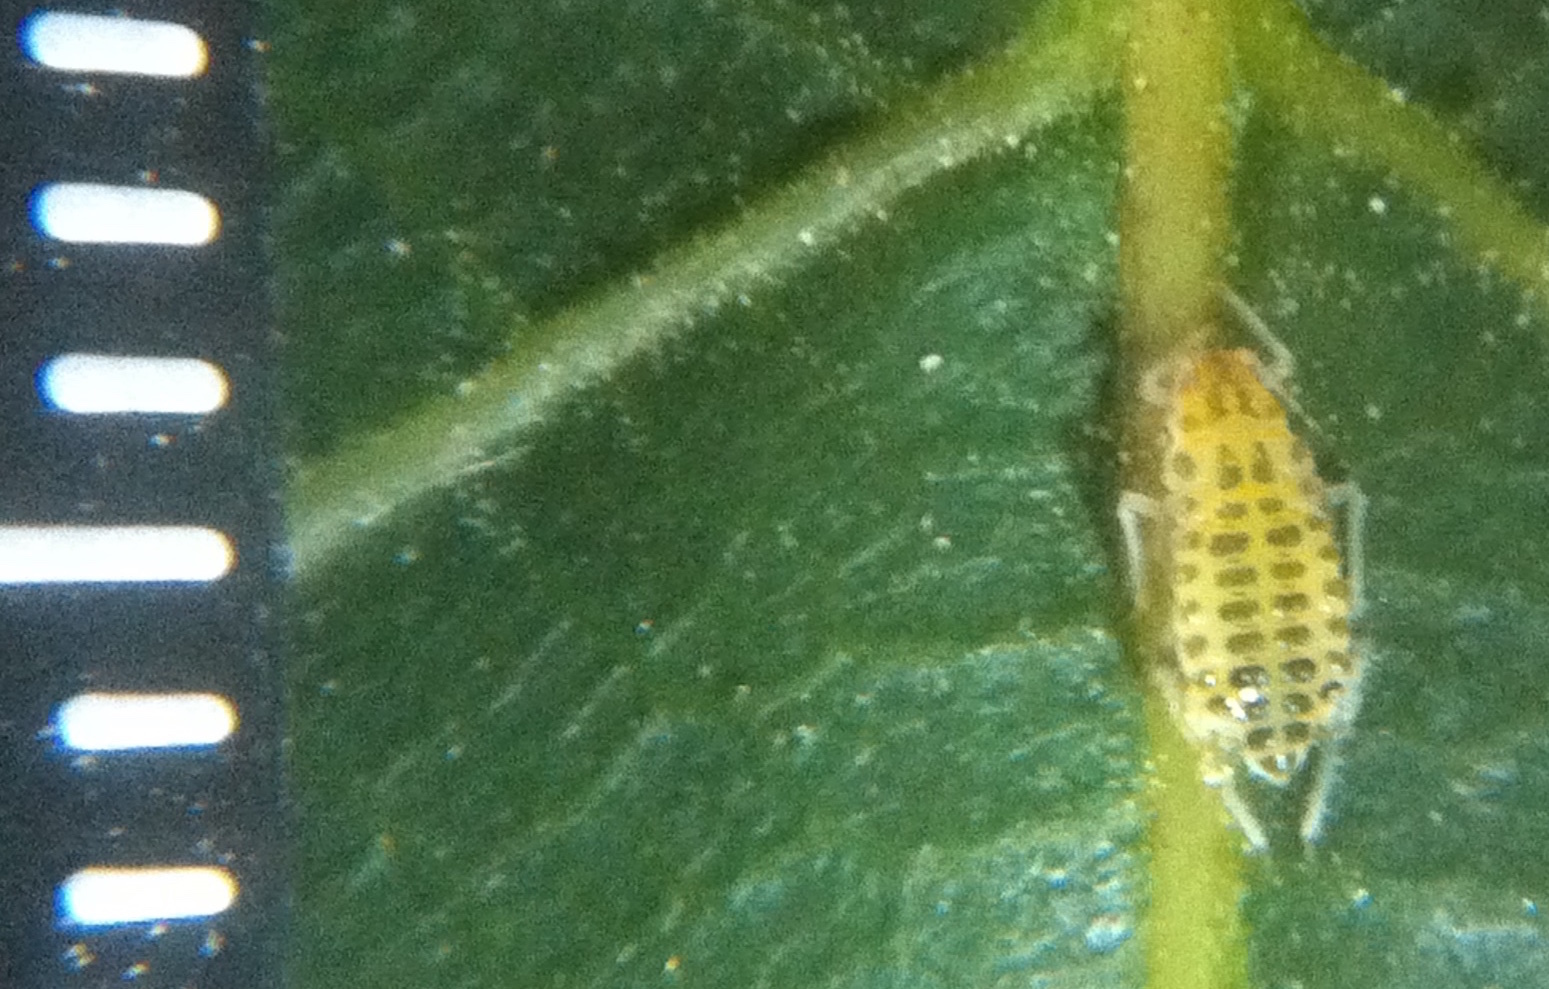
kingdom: Animalia
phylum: Arthropoda
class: Insecta
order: Hemiptera
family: Aphididae
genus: Panaphis
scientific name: Panaphis juglandis
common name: Large walnut aphid
